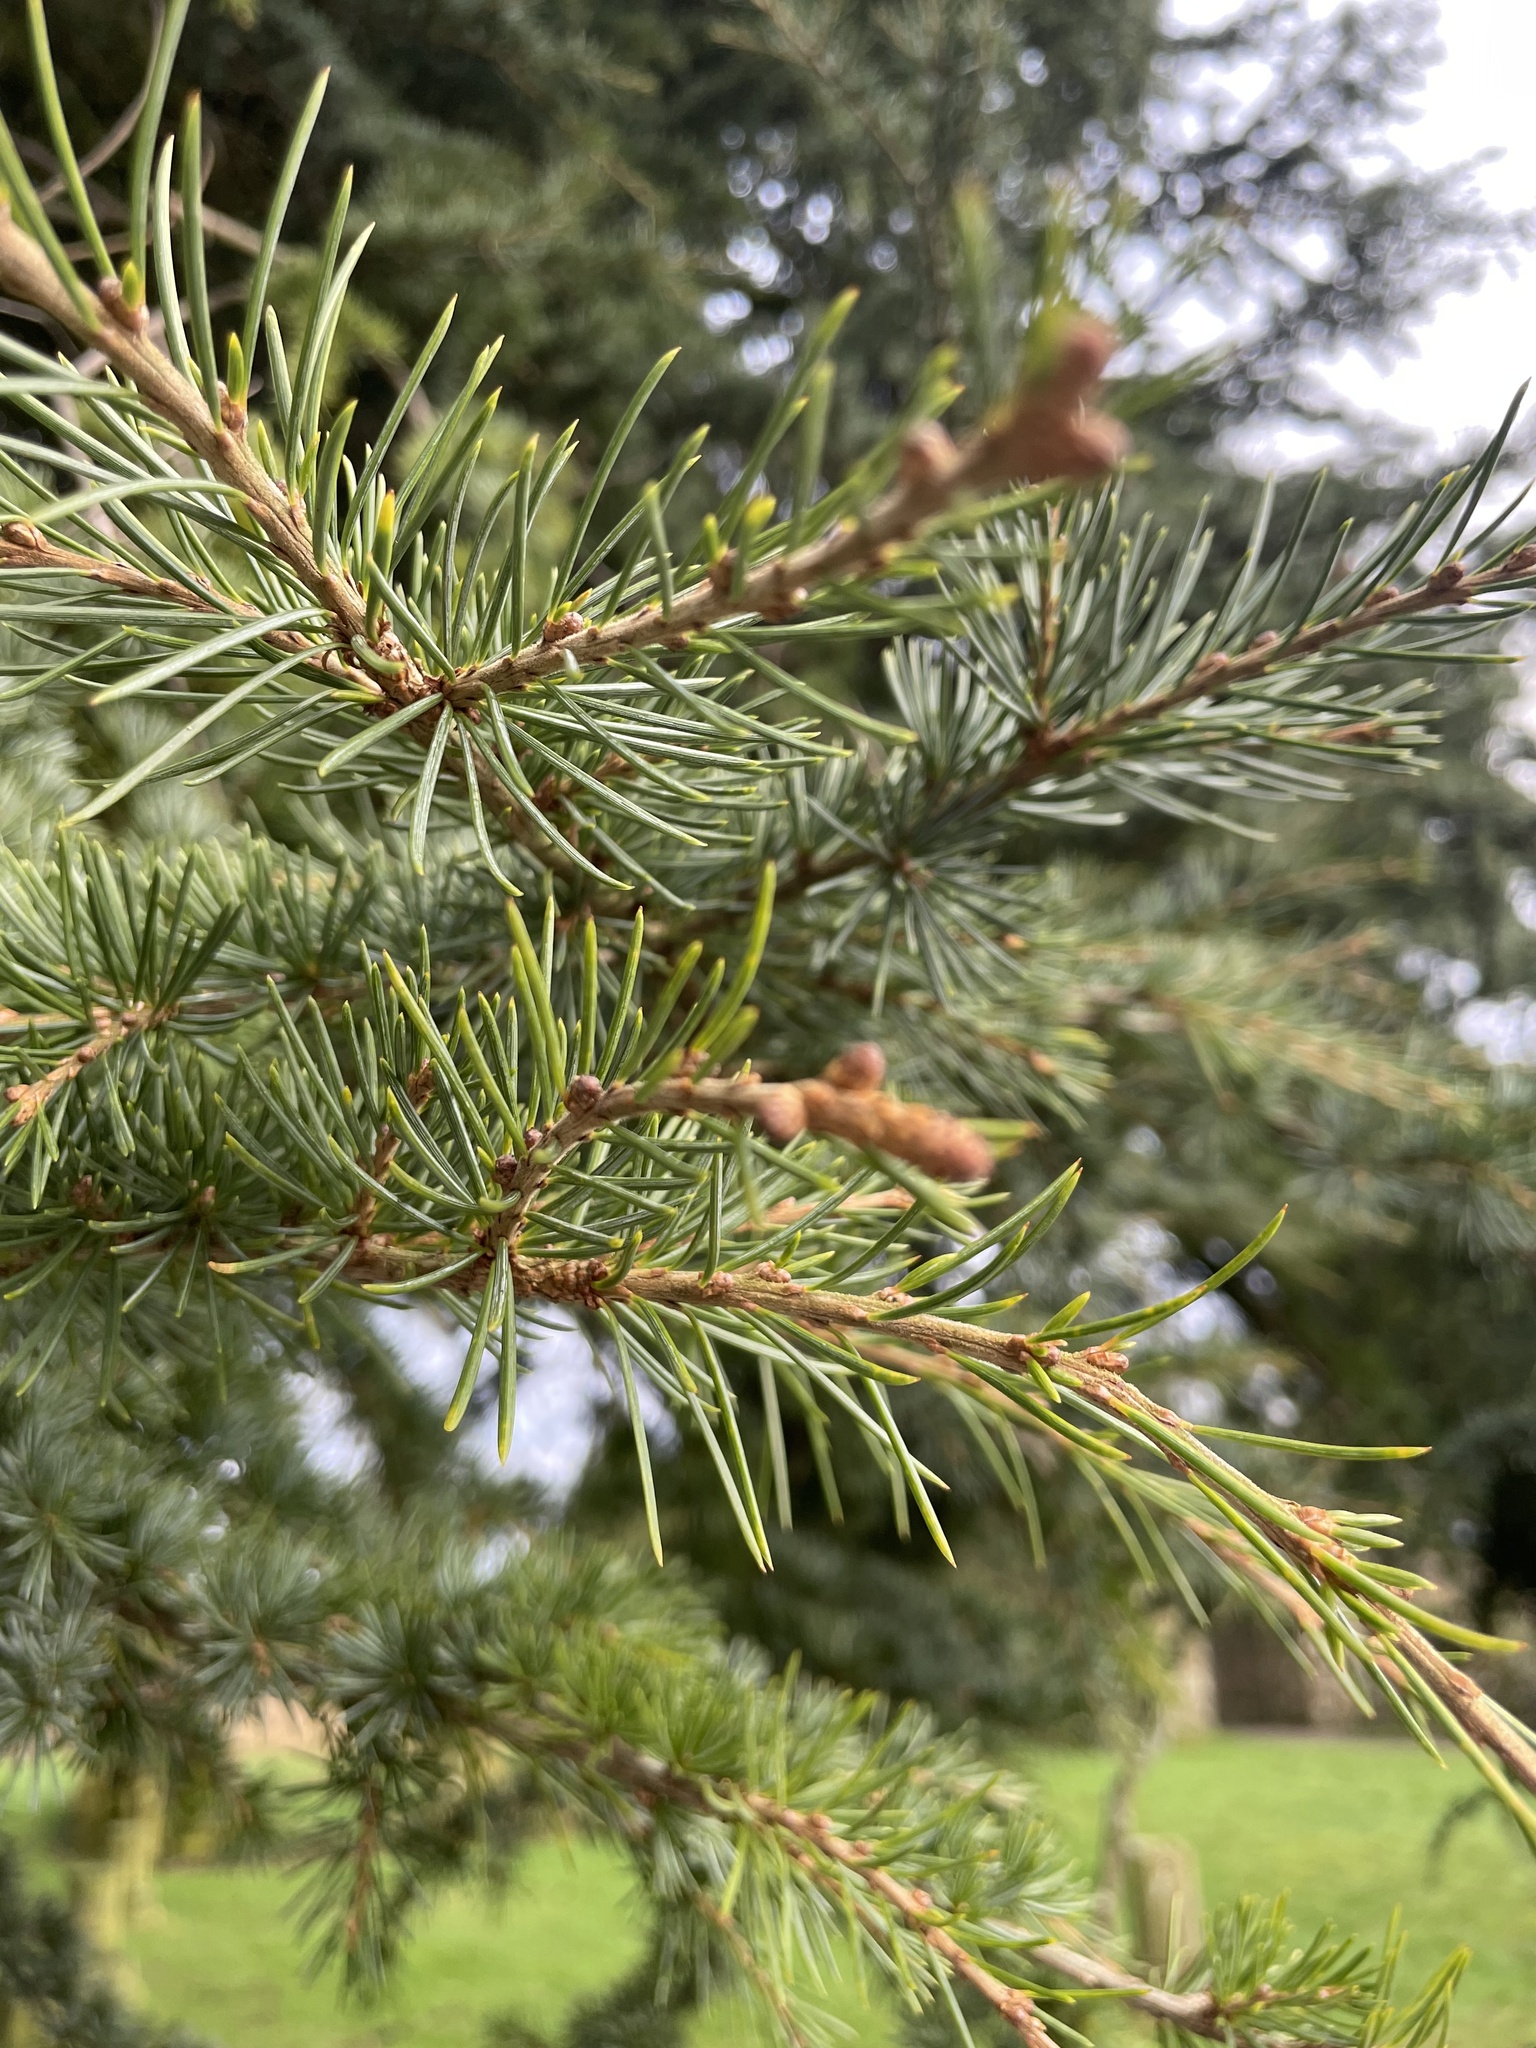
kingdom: Plantae
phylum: Tracheophyta
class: Pinopsida
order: Pinales
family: Pinaceae
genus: Cedrus
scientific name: Cedrus deodara
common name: Deodar
